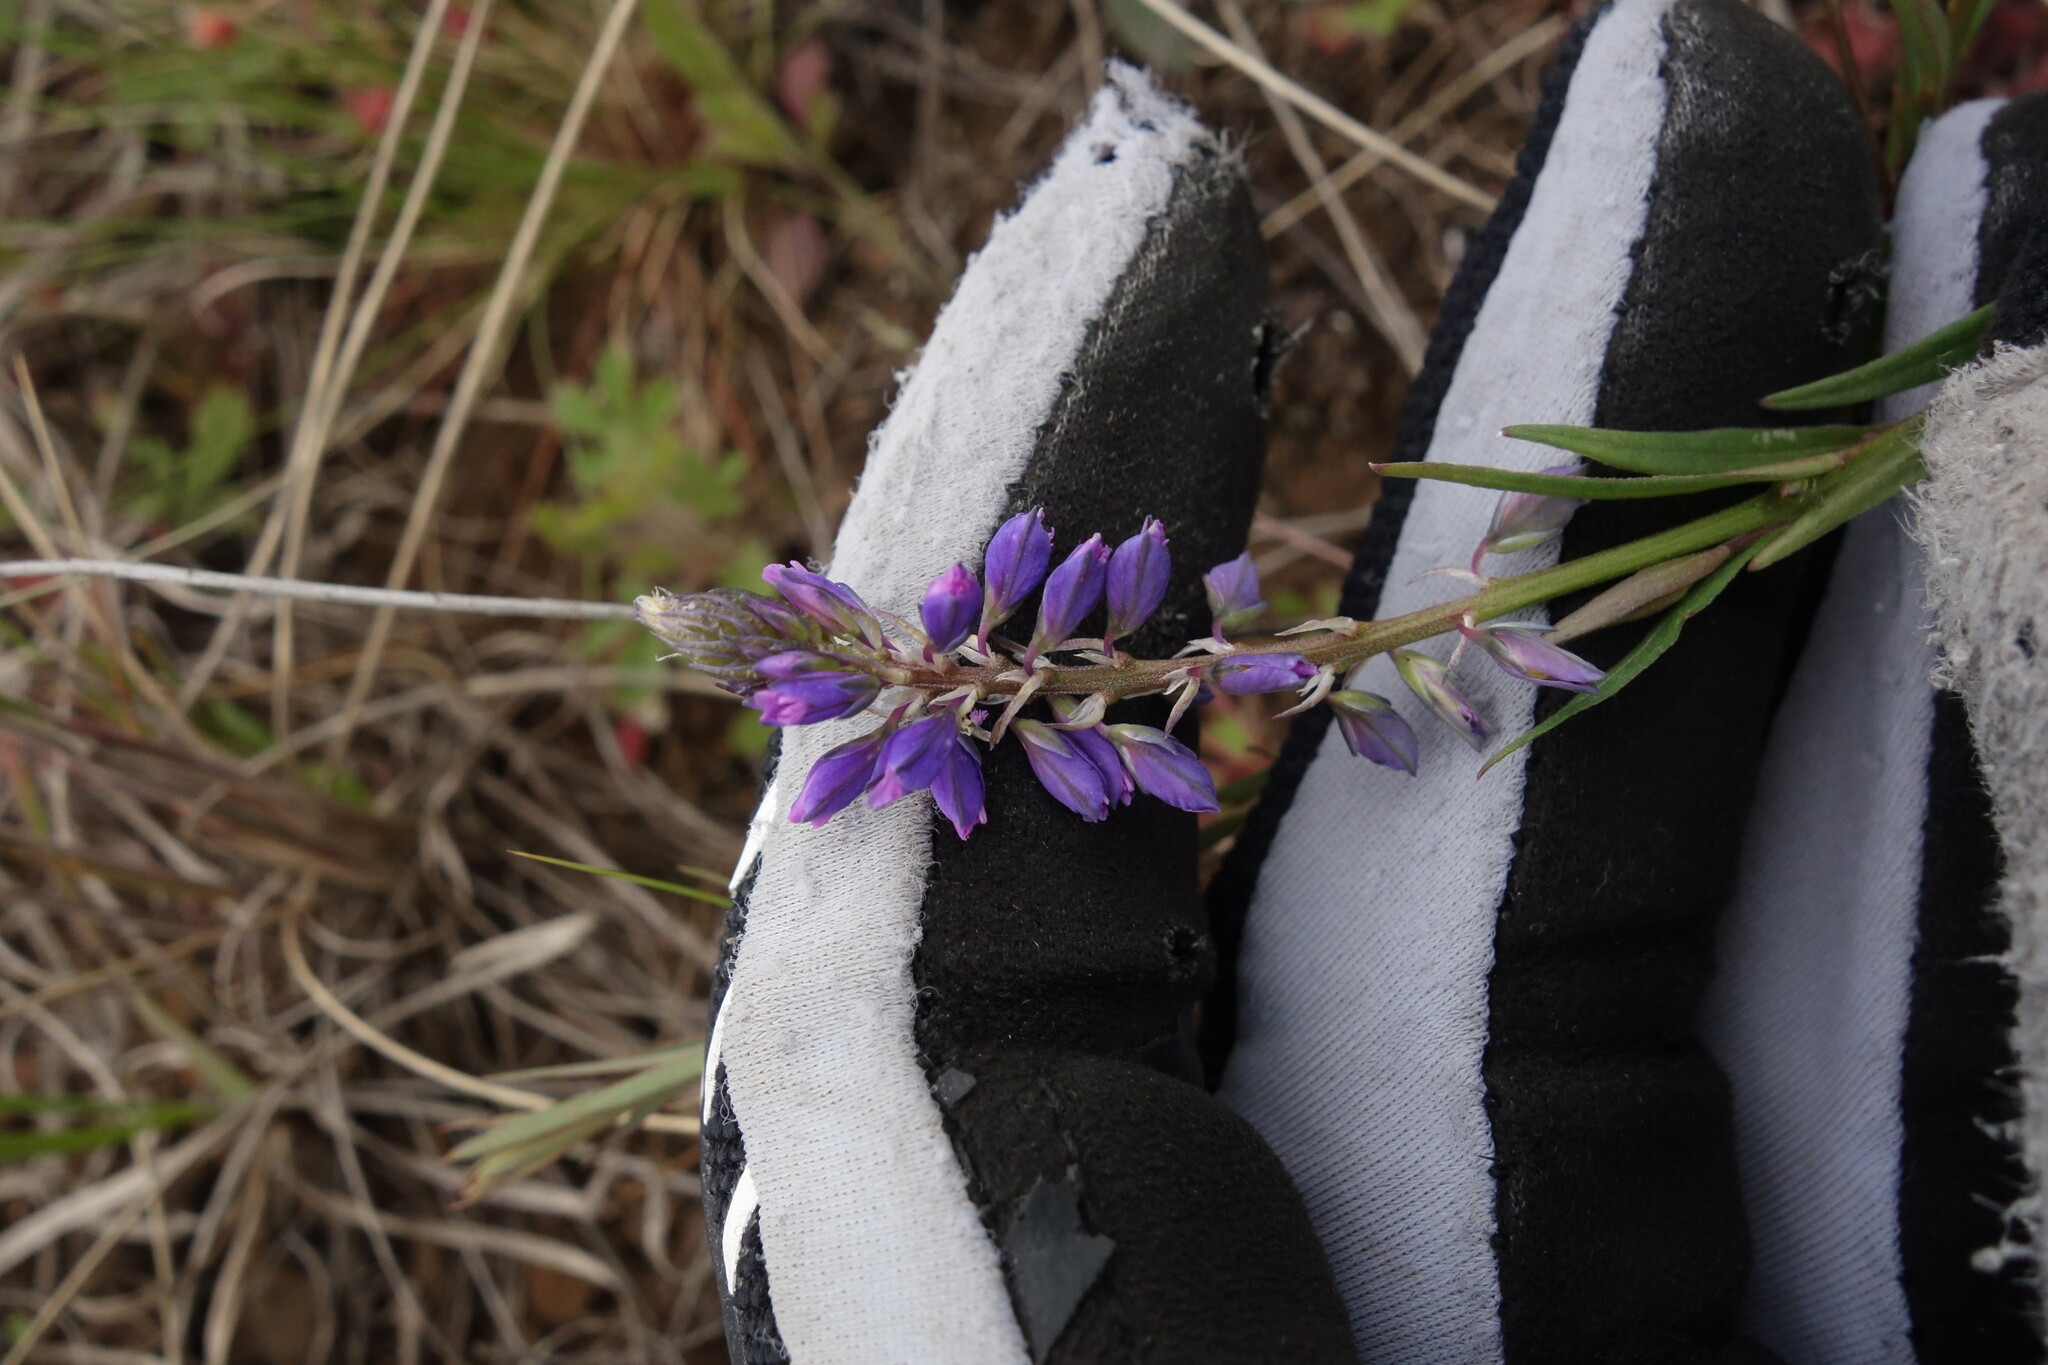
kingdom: Plantae
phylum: Tracheophyta
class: Magnoliopsida
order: Fabales
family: Polygalaceae
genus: Polygala
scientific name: Polygala comosa
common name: Tufted milkwort
